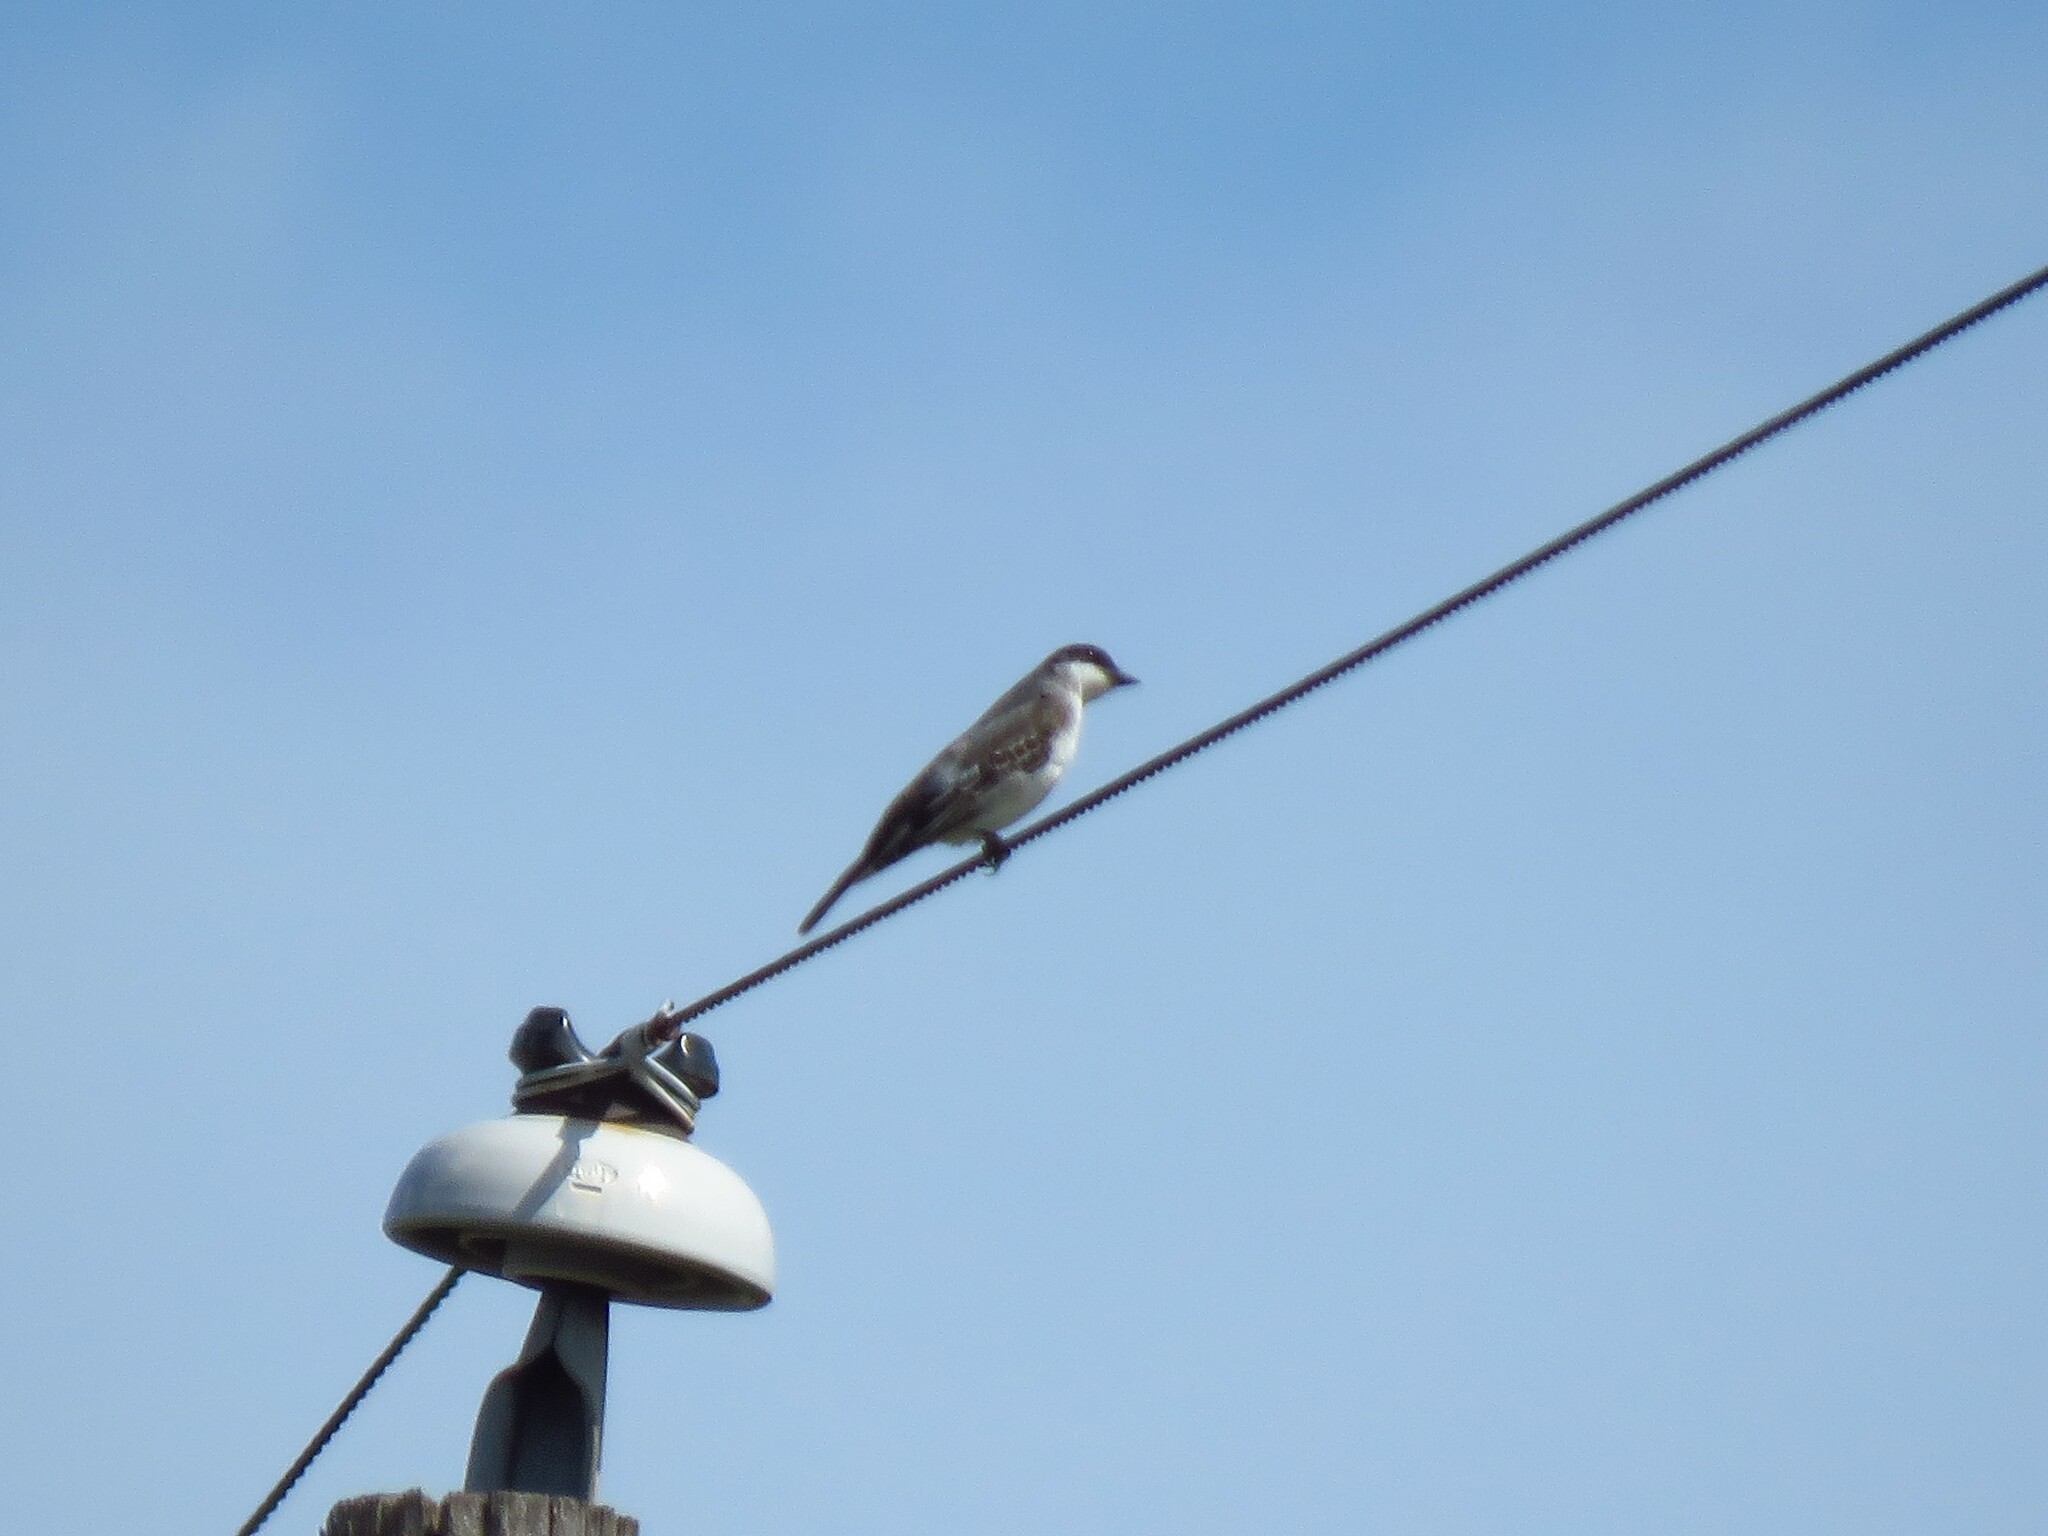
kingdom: Animalia
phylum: Chordata
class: Aves
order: Passeriformes
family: Tyrannidae
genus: Tyrannus
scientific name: Tyrannus tyrannus
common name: Eastern kingbird
